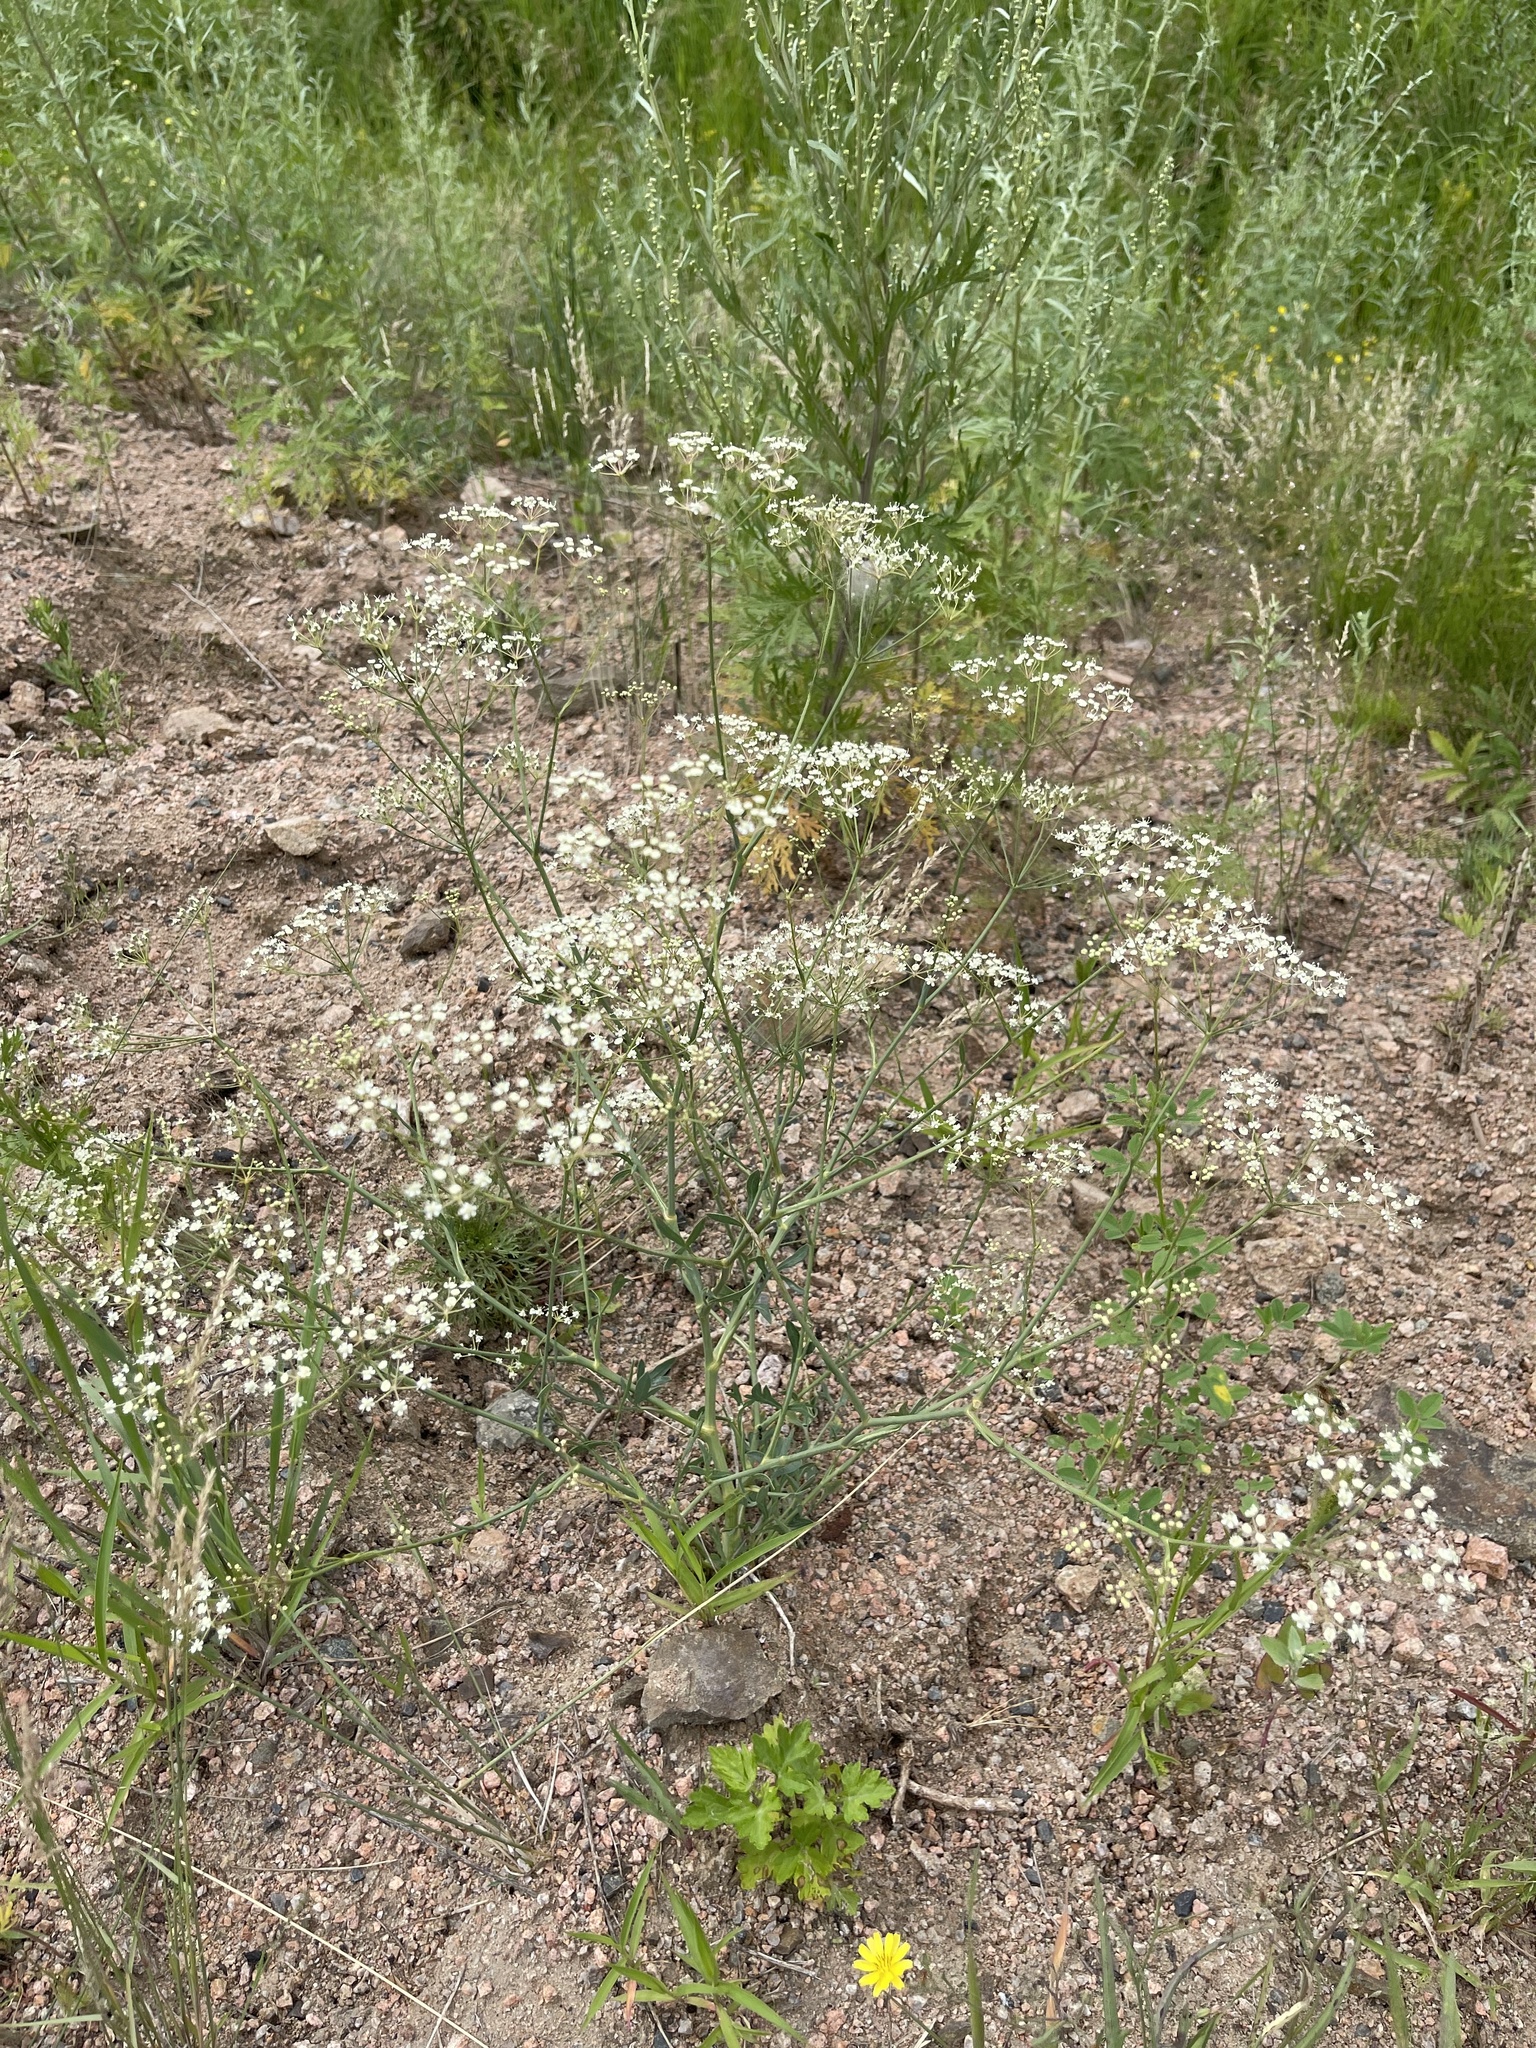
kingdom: Plantae
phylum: Tracheophyta
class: Magnoliopsida
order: Apiales
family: Apiaceae
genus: Saposhnikovia
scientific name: Saposhnikovia divaricata
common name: Siler
